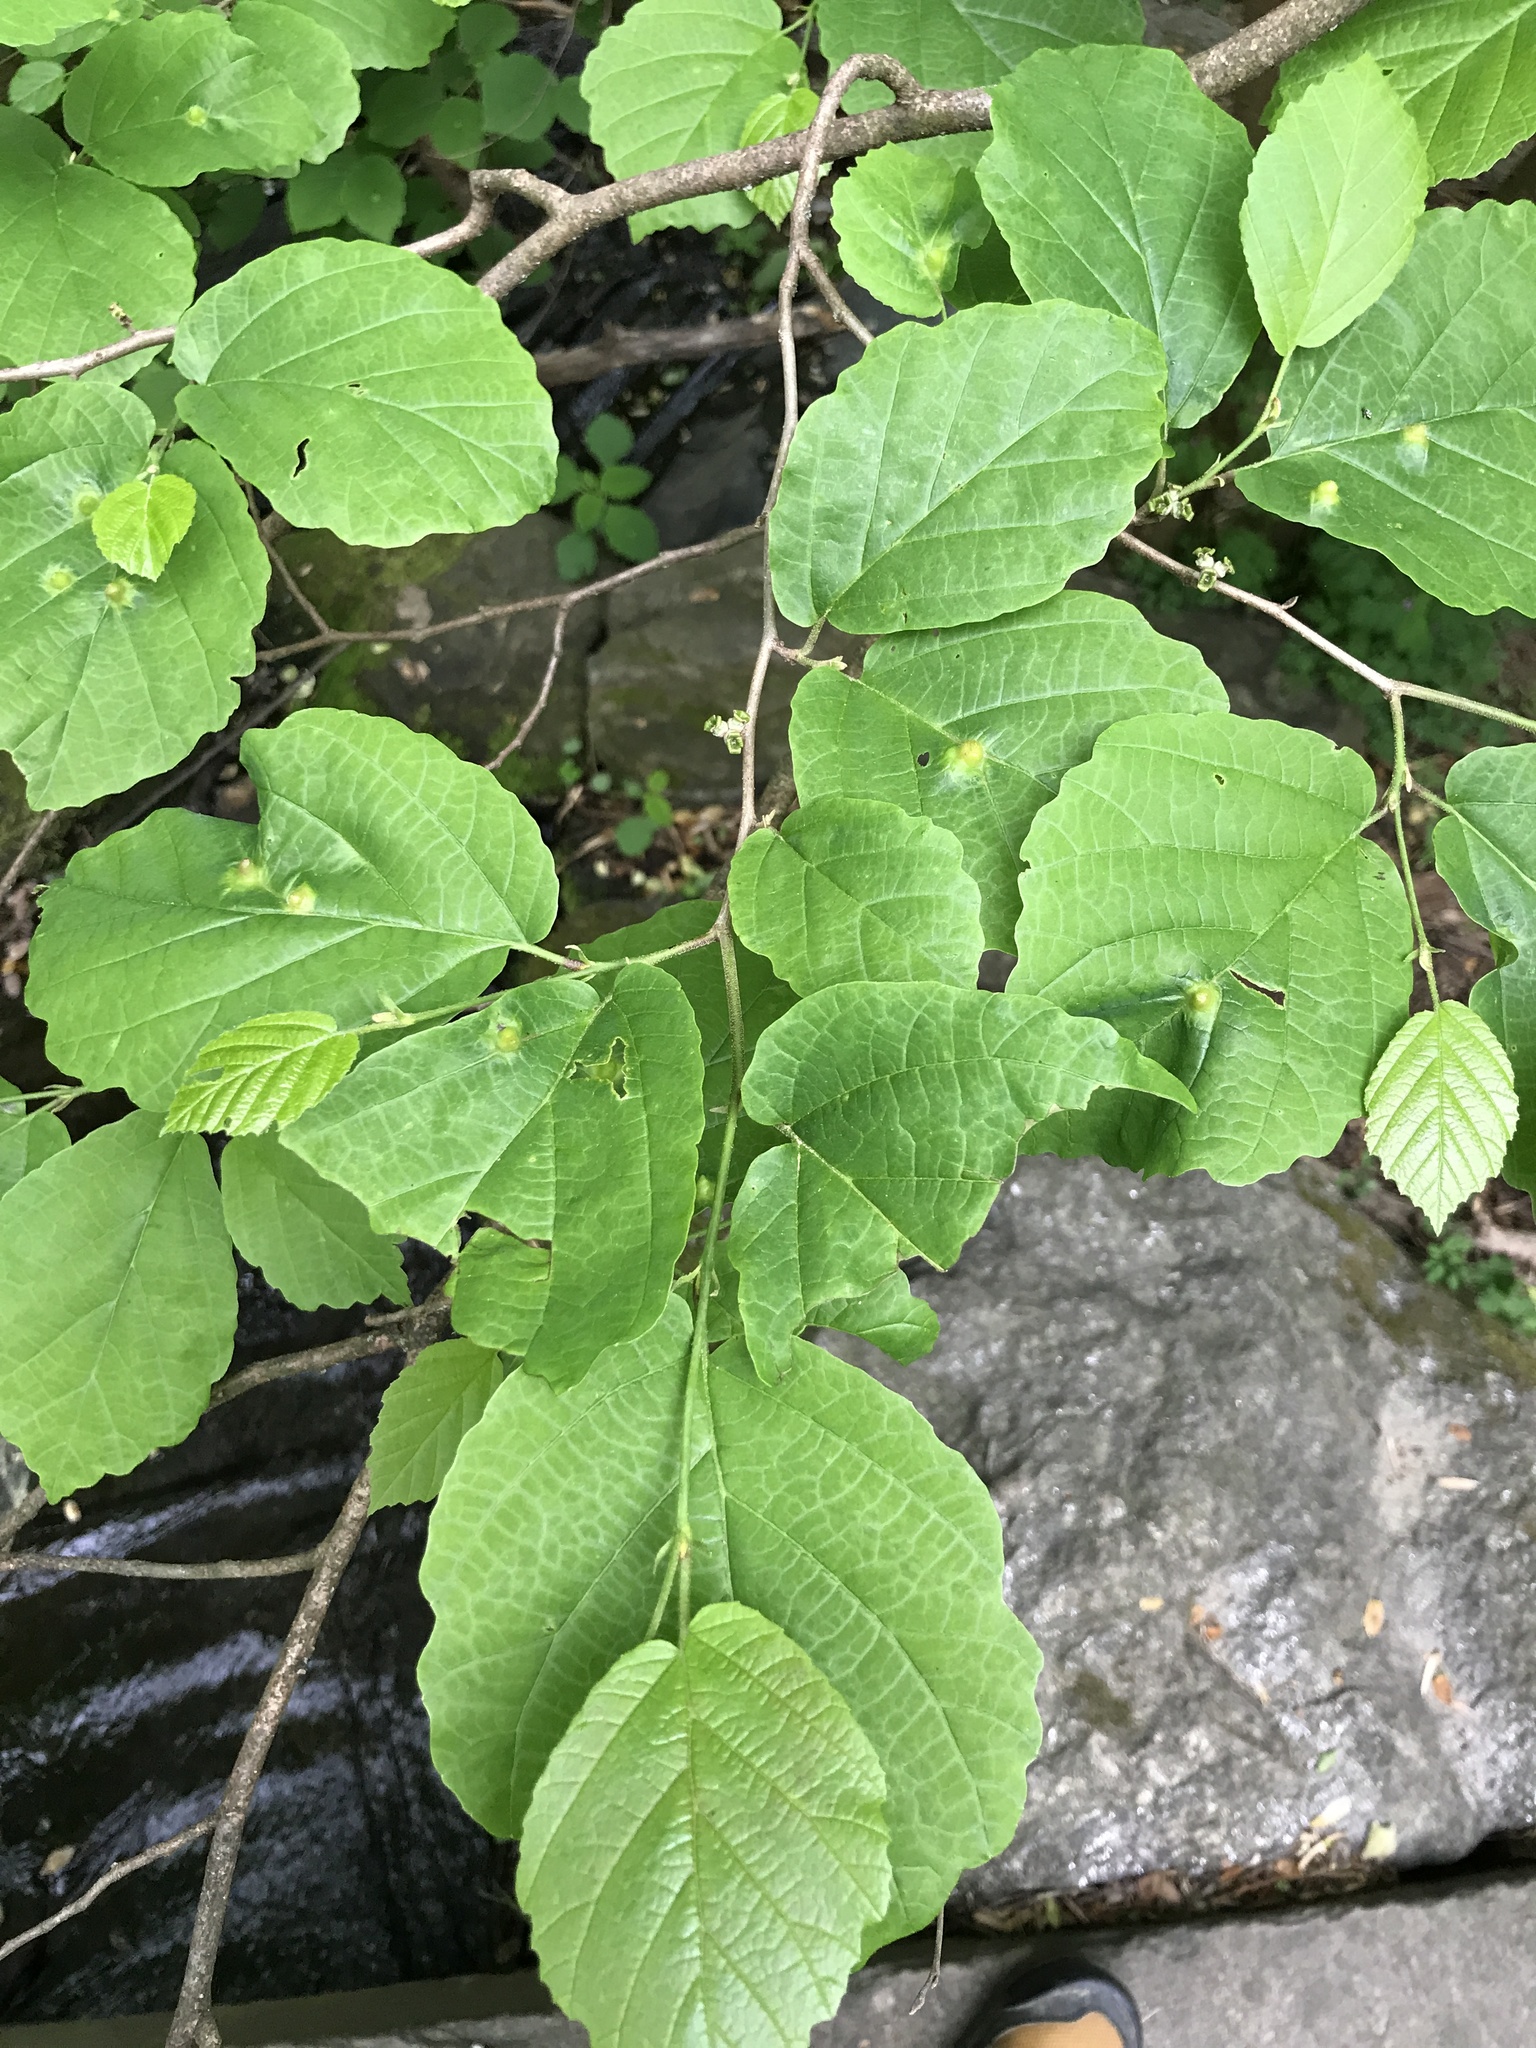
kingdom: Plantae
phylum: Tracheophyta
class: Magnoliopsida
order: Saxifragales
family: Hamamelidaceae
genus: Hamamelis
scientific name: Hamamelis virginiana
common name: Witch-hazel
